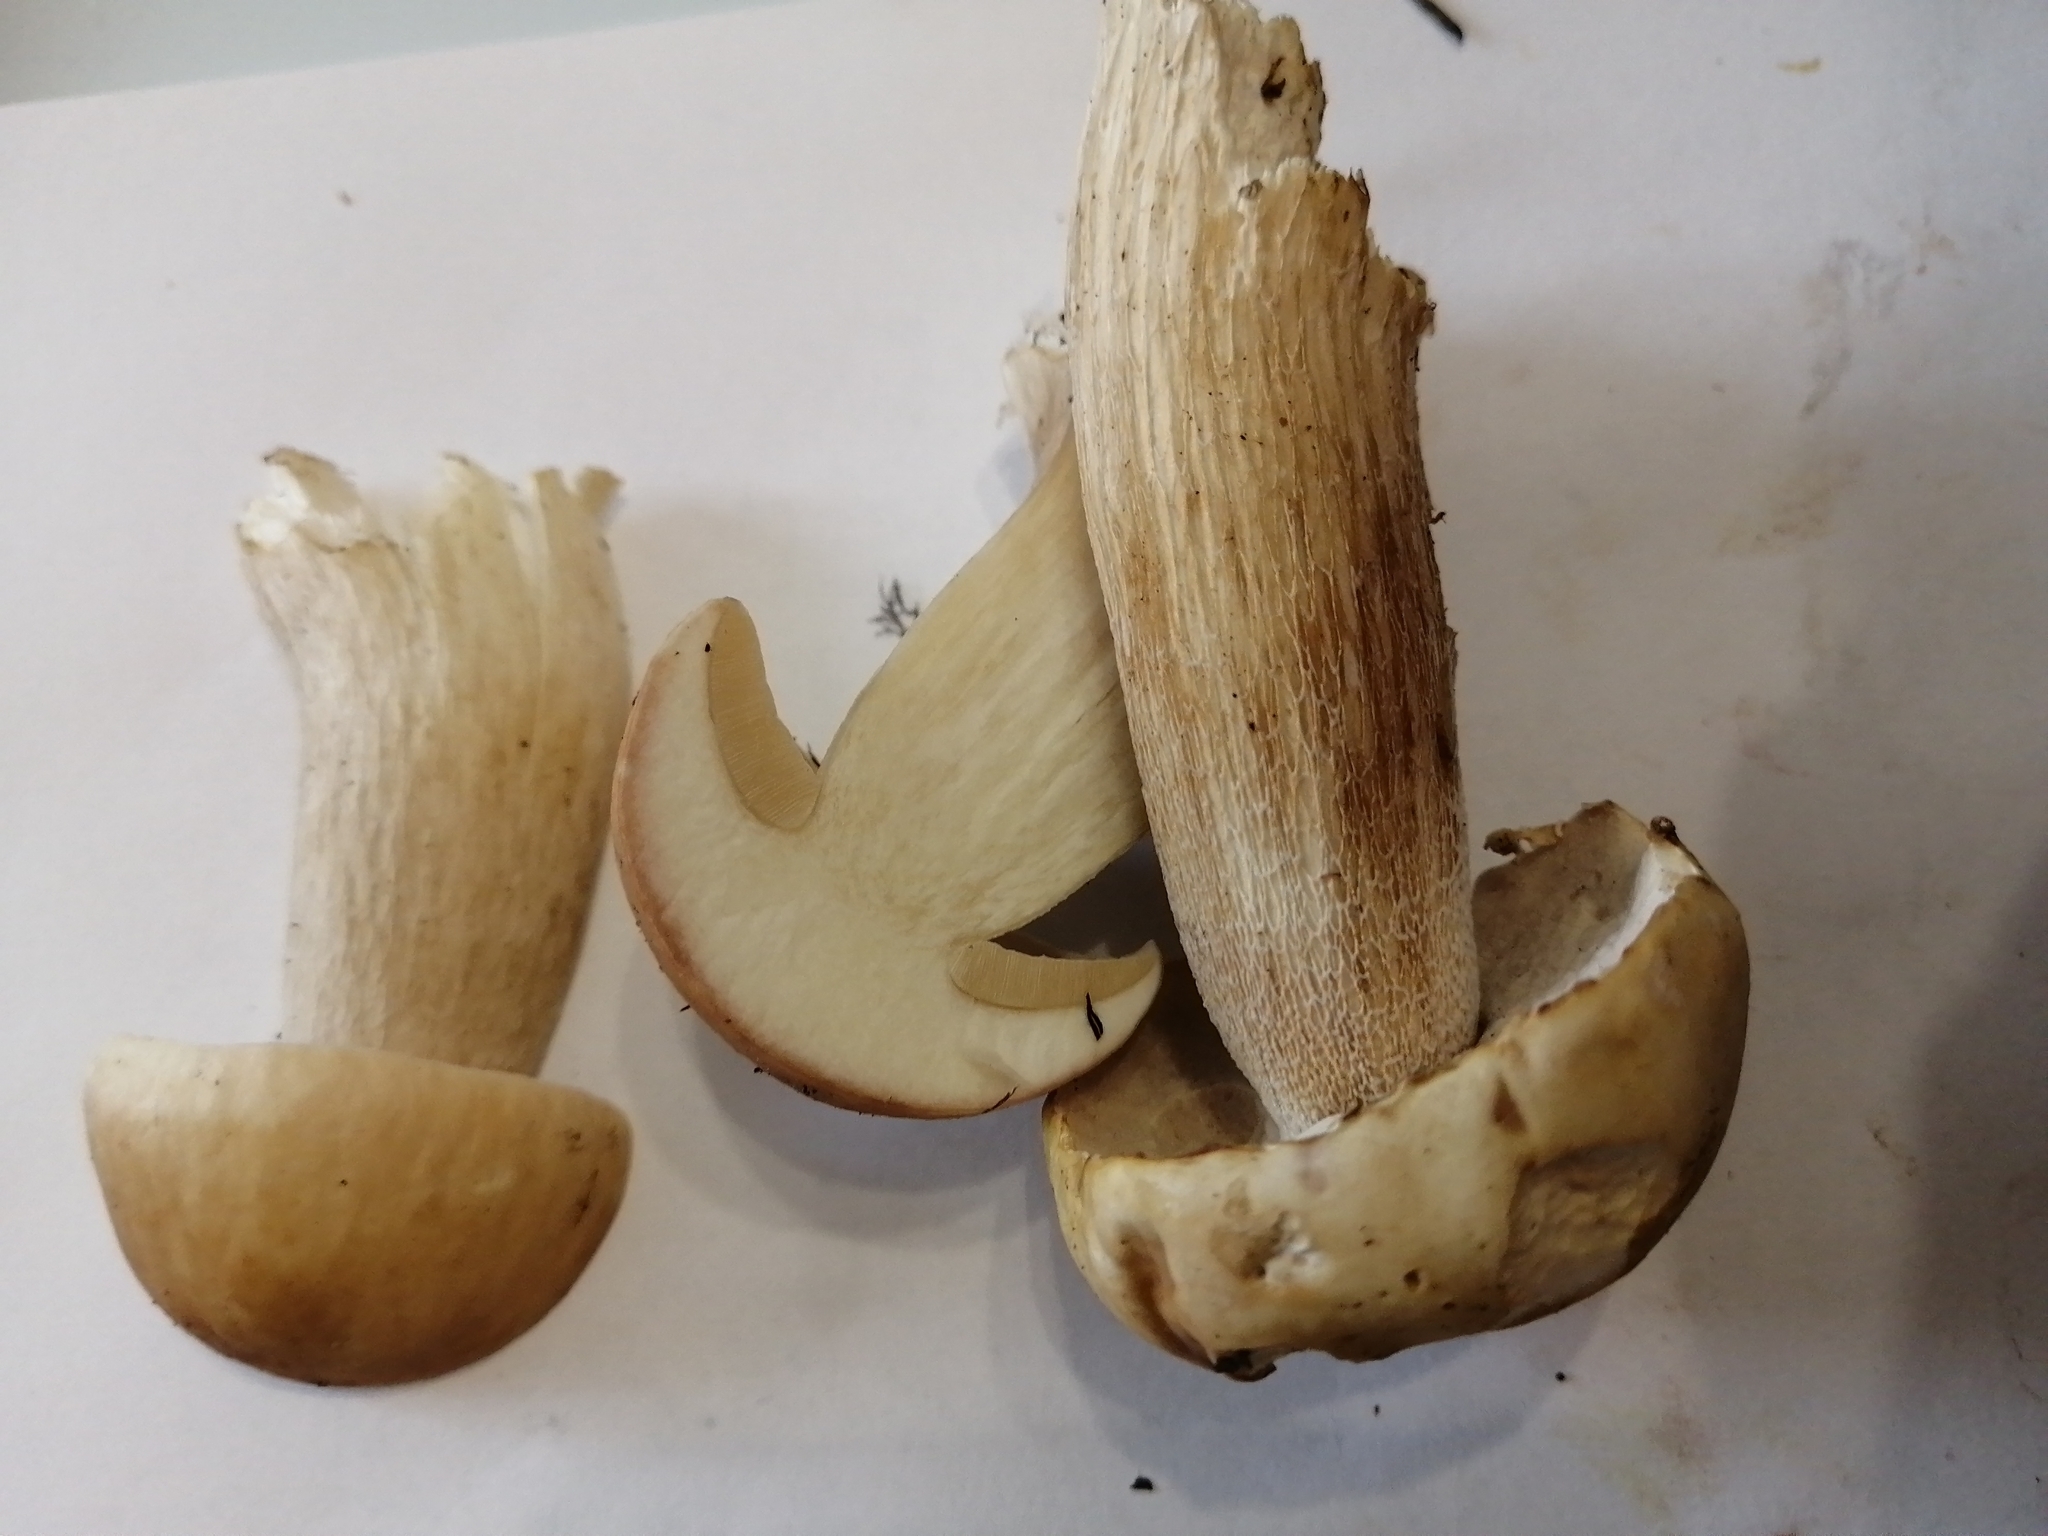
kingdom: Fungi
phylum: Basidiomycota
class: Agaricomycetes
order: Boletales
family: Boletaceae
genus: Boletus
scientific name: Boletus edulis
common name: Cep
